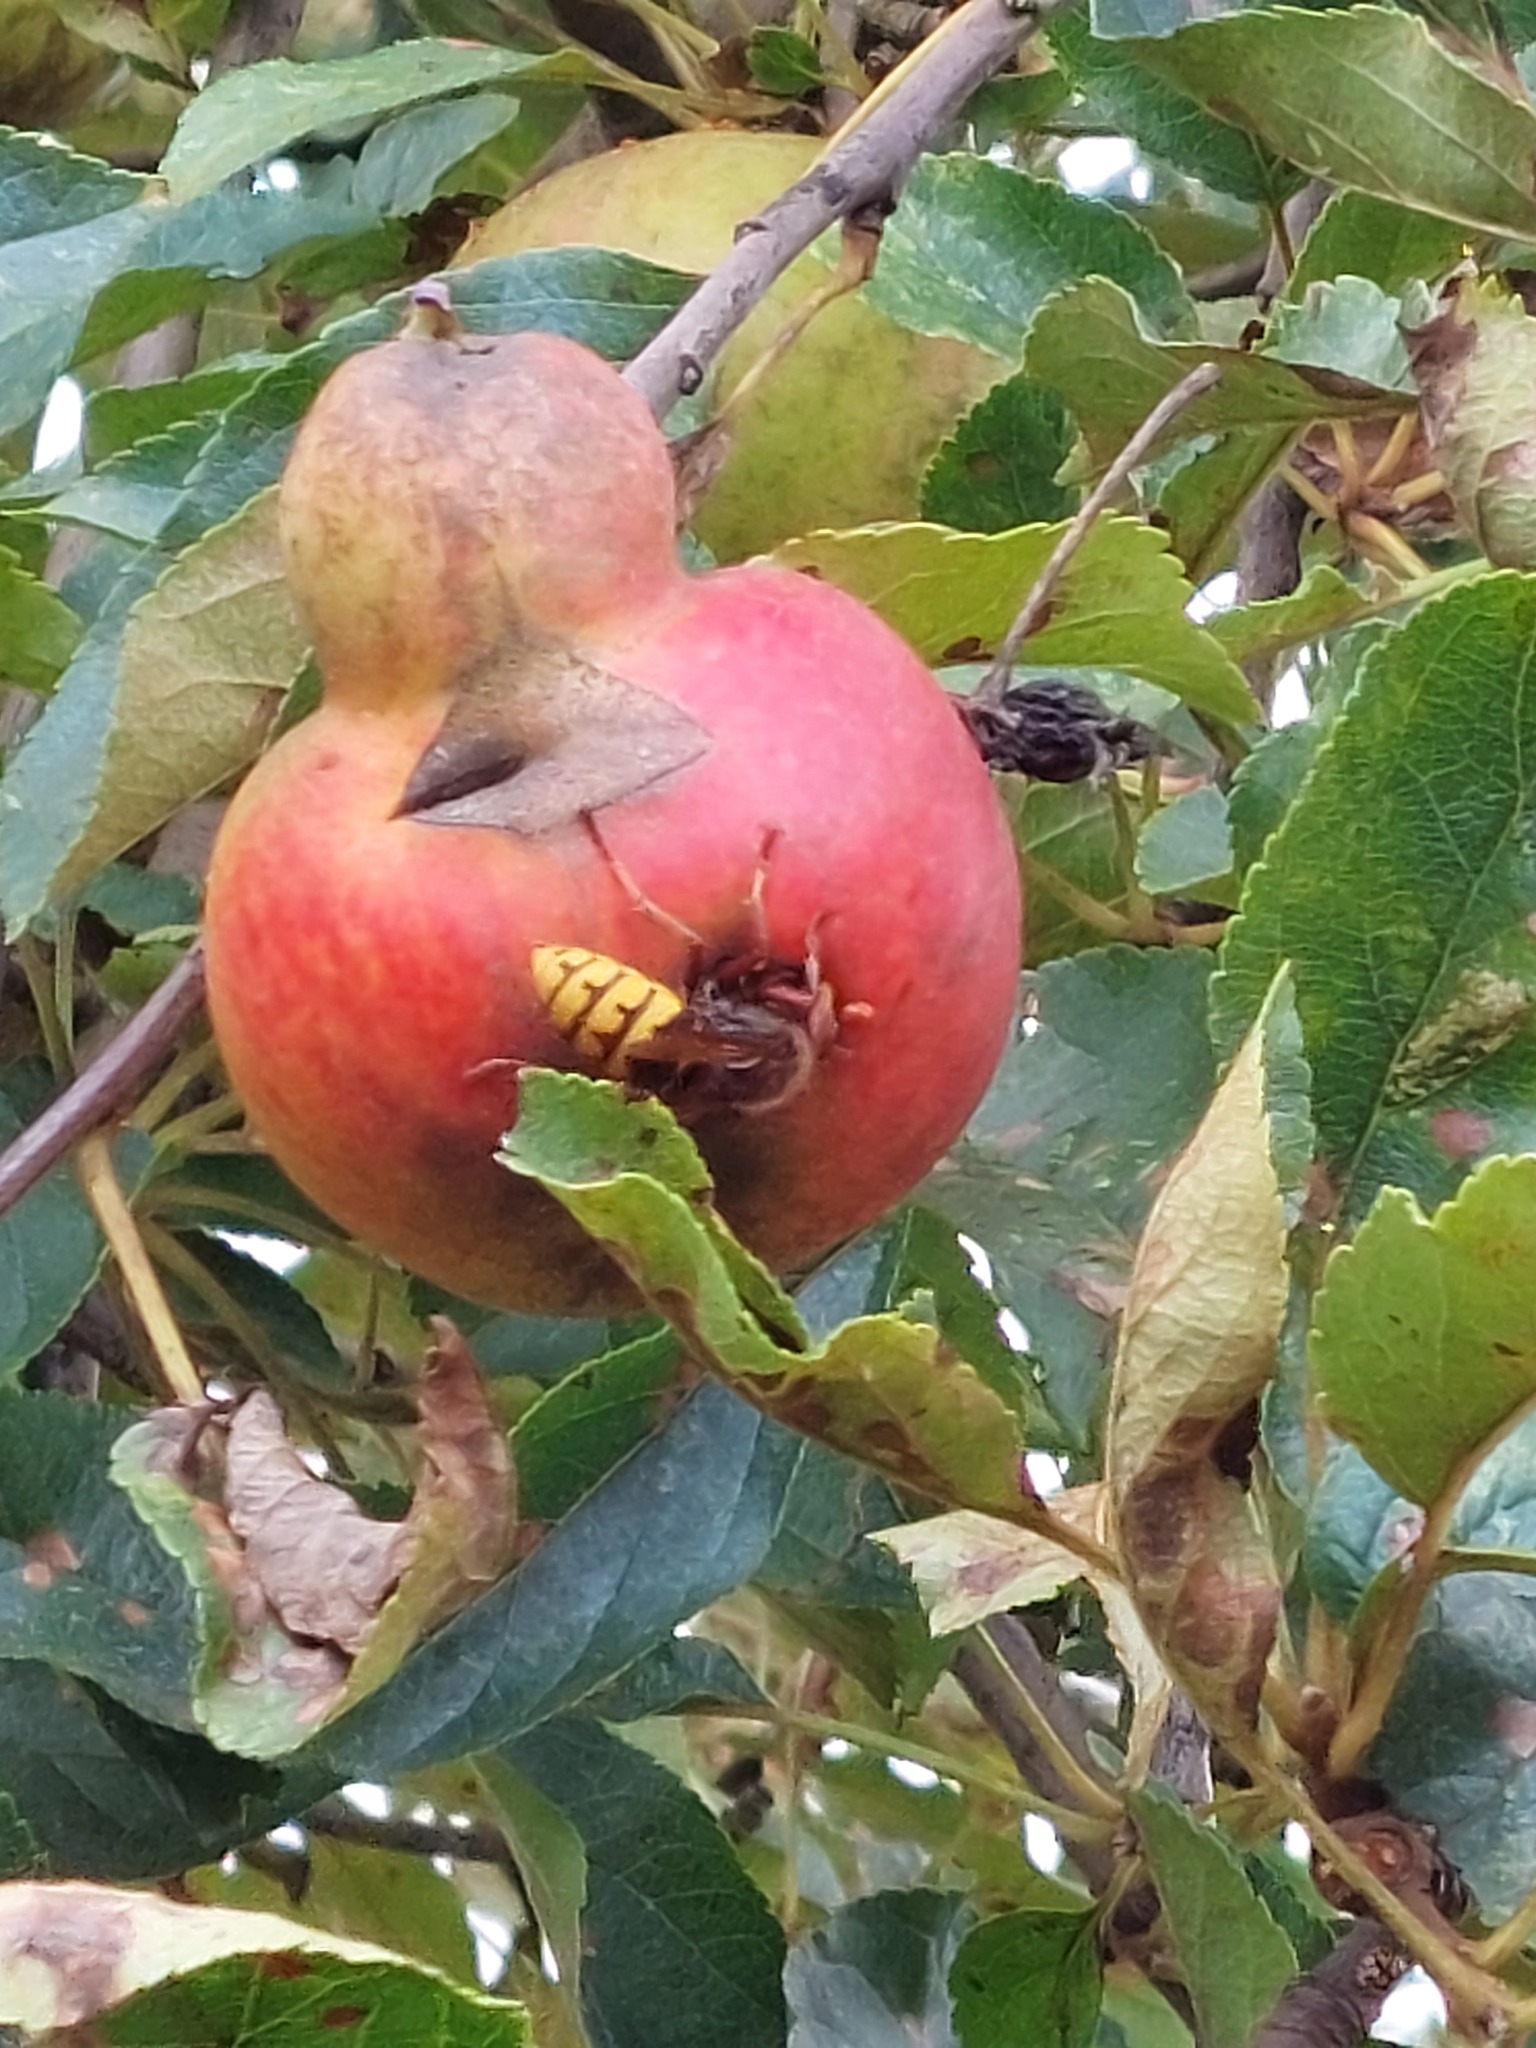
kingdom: Animalia
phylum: Arthropoda
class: Insecta
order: Hymenoptera
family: Vespidae
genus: Vespa
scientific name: Vespa crabro
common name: Hornet
